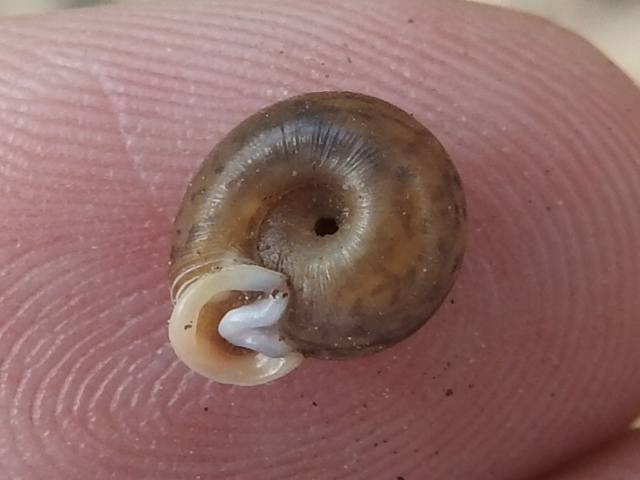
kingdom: Animalia
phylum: Mollusca
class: Gastropoda
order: Stylommatophora
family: Polygyridae
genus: Daedalochila
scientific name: Daedalochila dorfeuilliana
